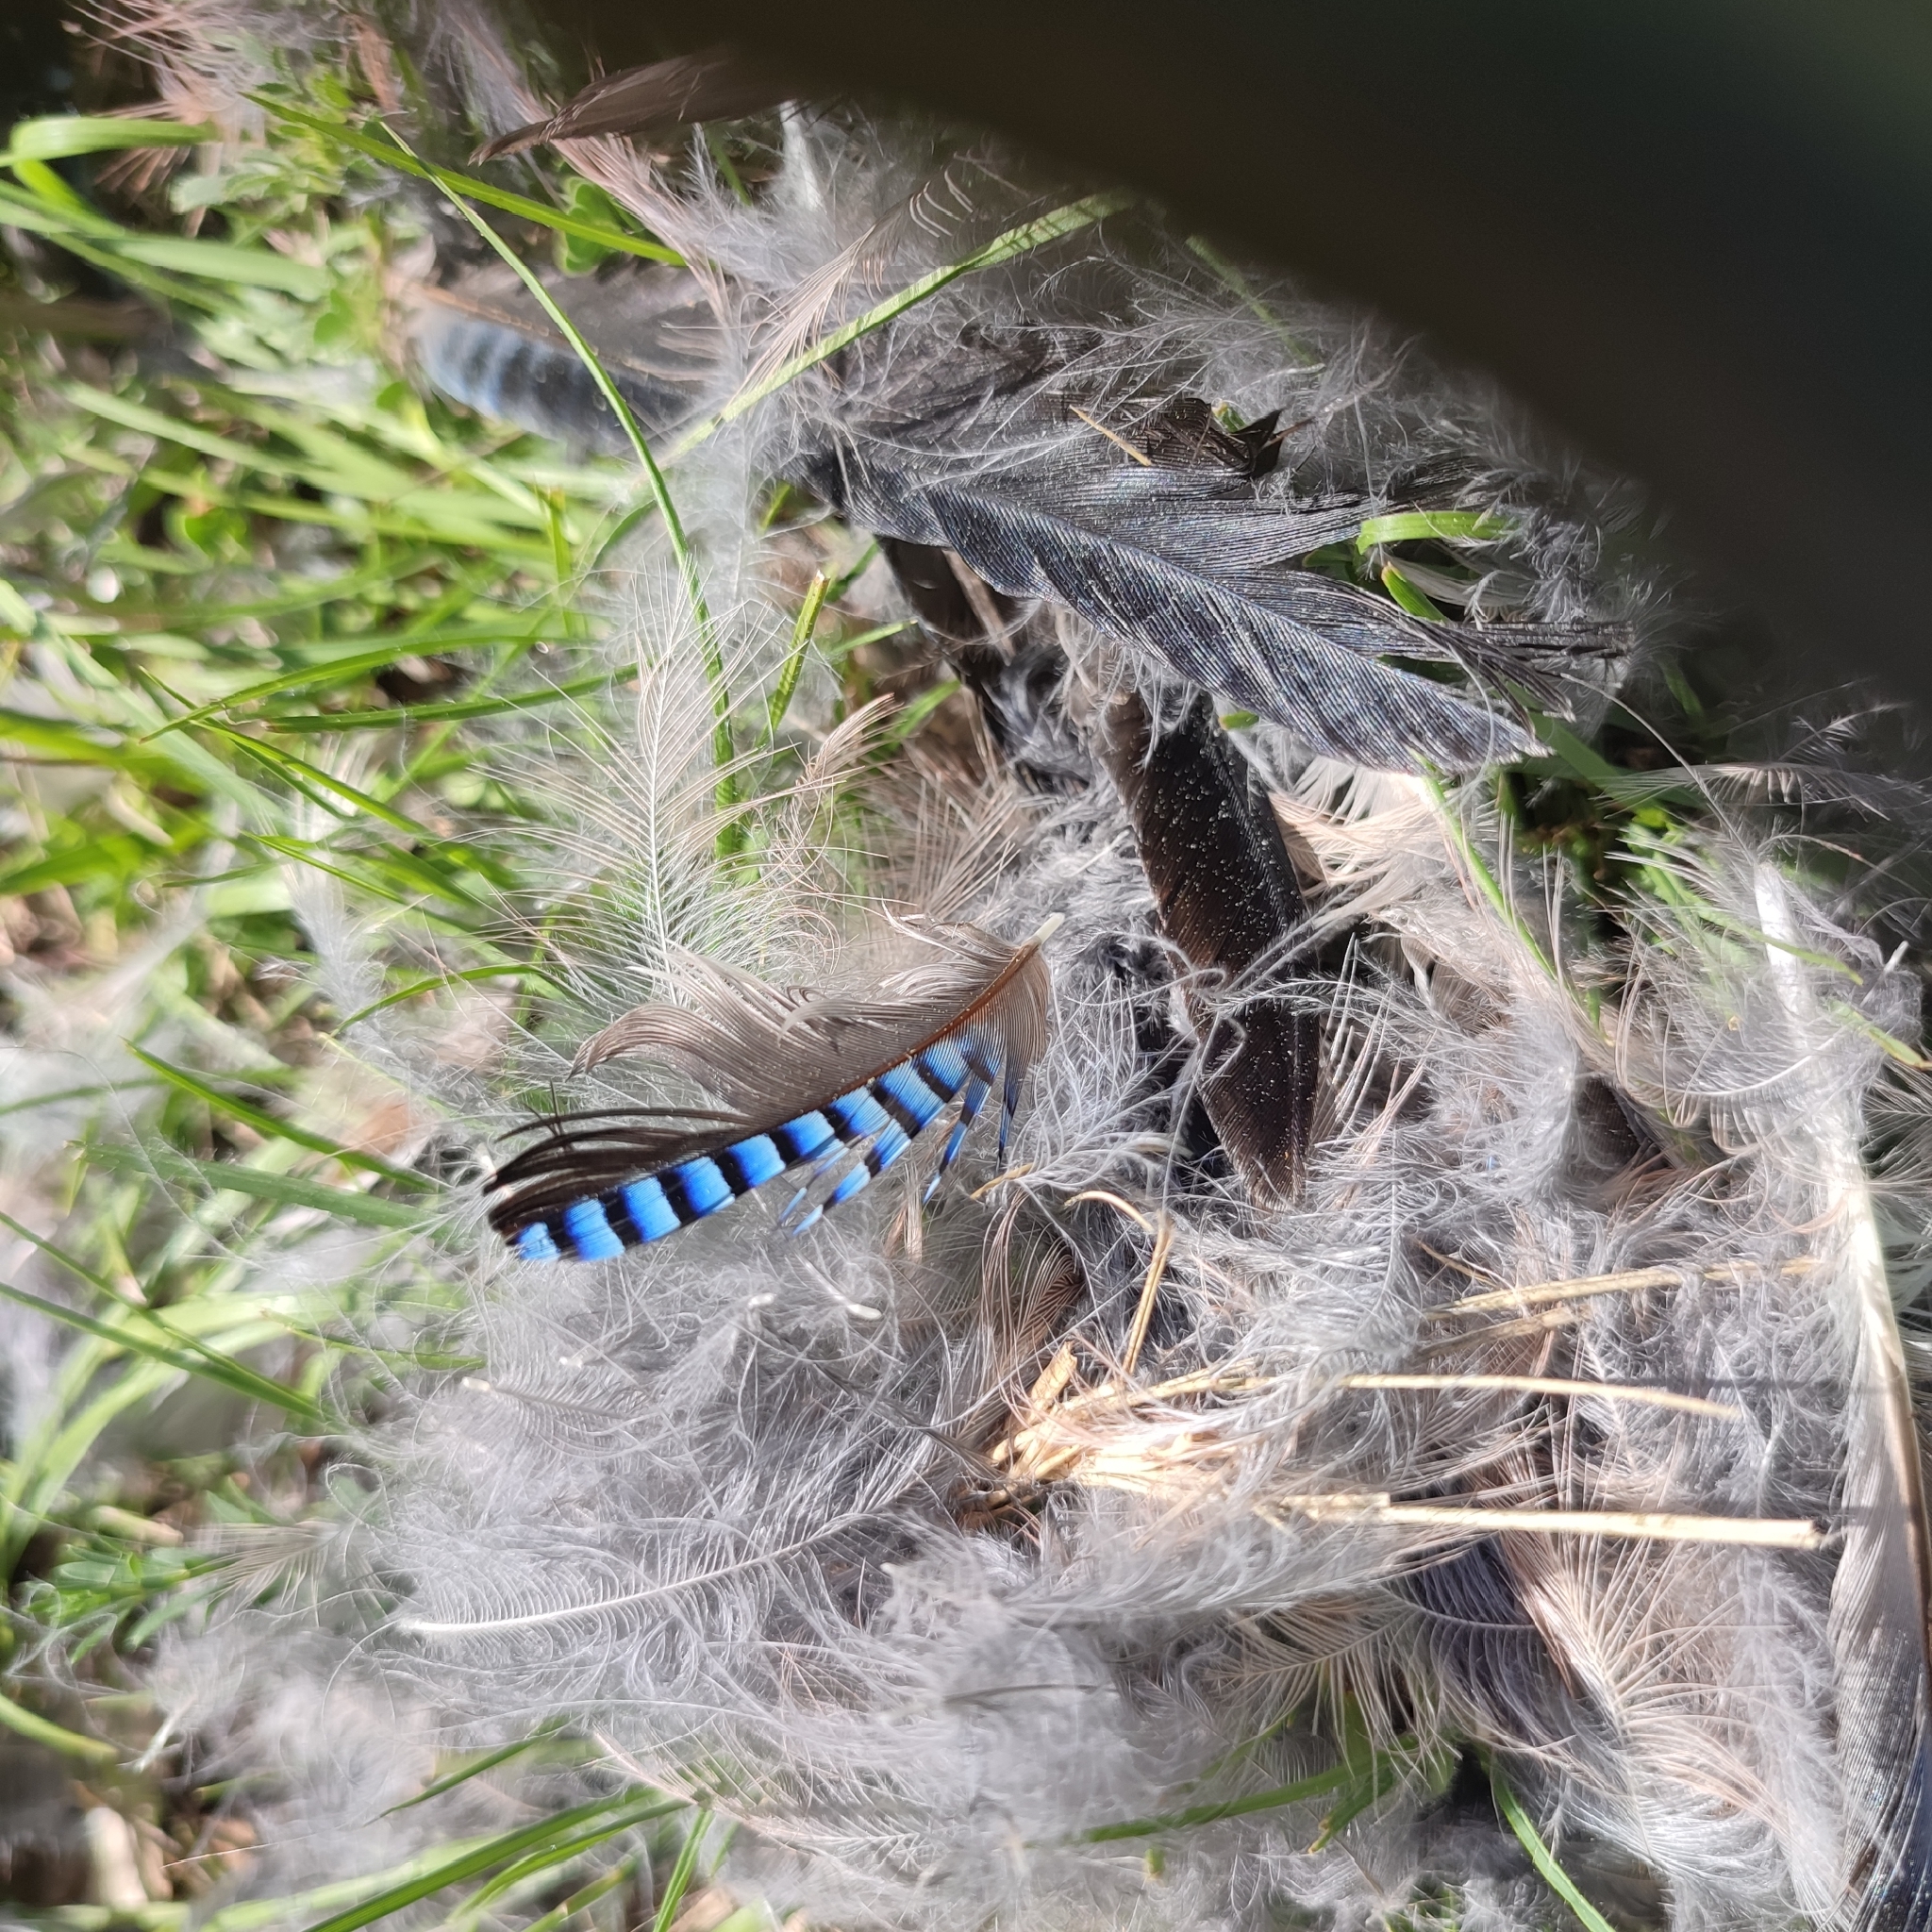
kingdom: Animalia
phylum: Chordata
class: Aves
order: Passeriformes
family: Corvidae
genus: Garrulus
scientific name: Garrulus glandarius
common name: Eurasian jay
